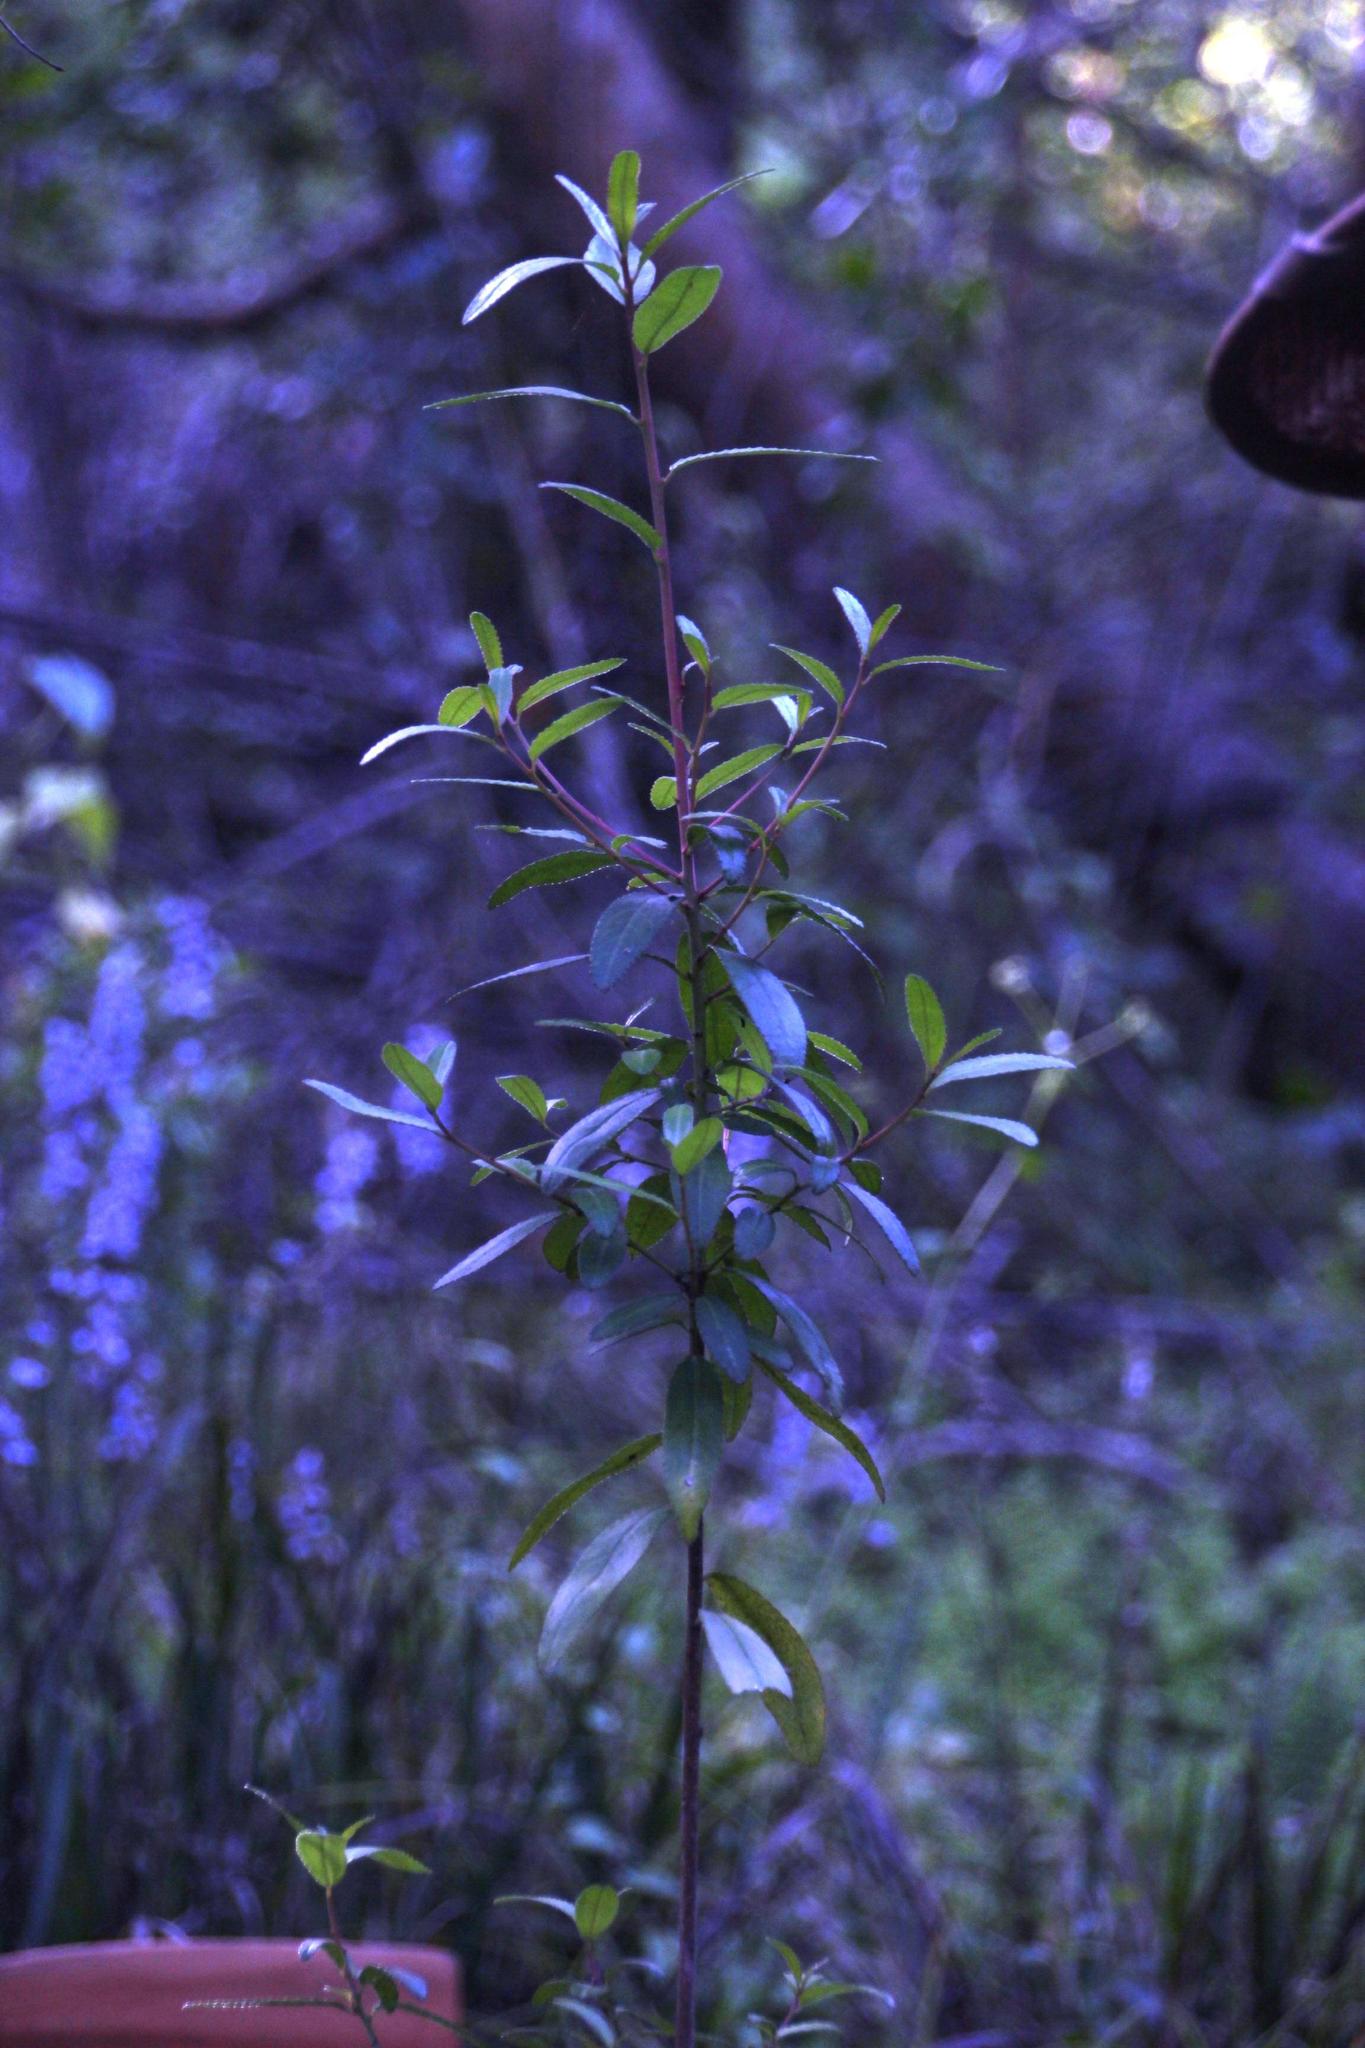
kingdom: Plantae
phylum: Tracheophyta
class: Magnoliopsida
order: Malpighiales
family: Euphorbiaceae
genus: Adenopeltis
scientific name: Adenopeltis serrata
